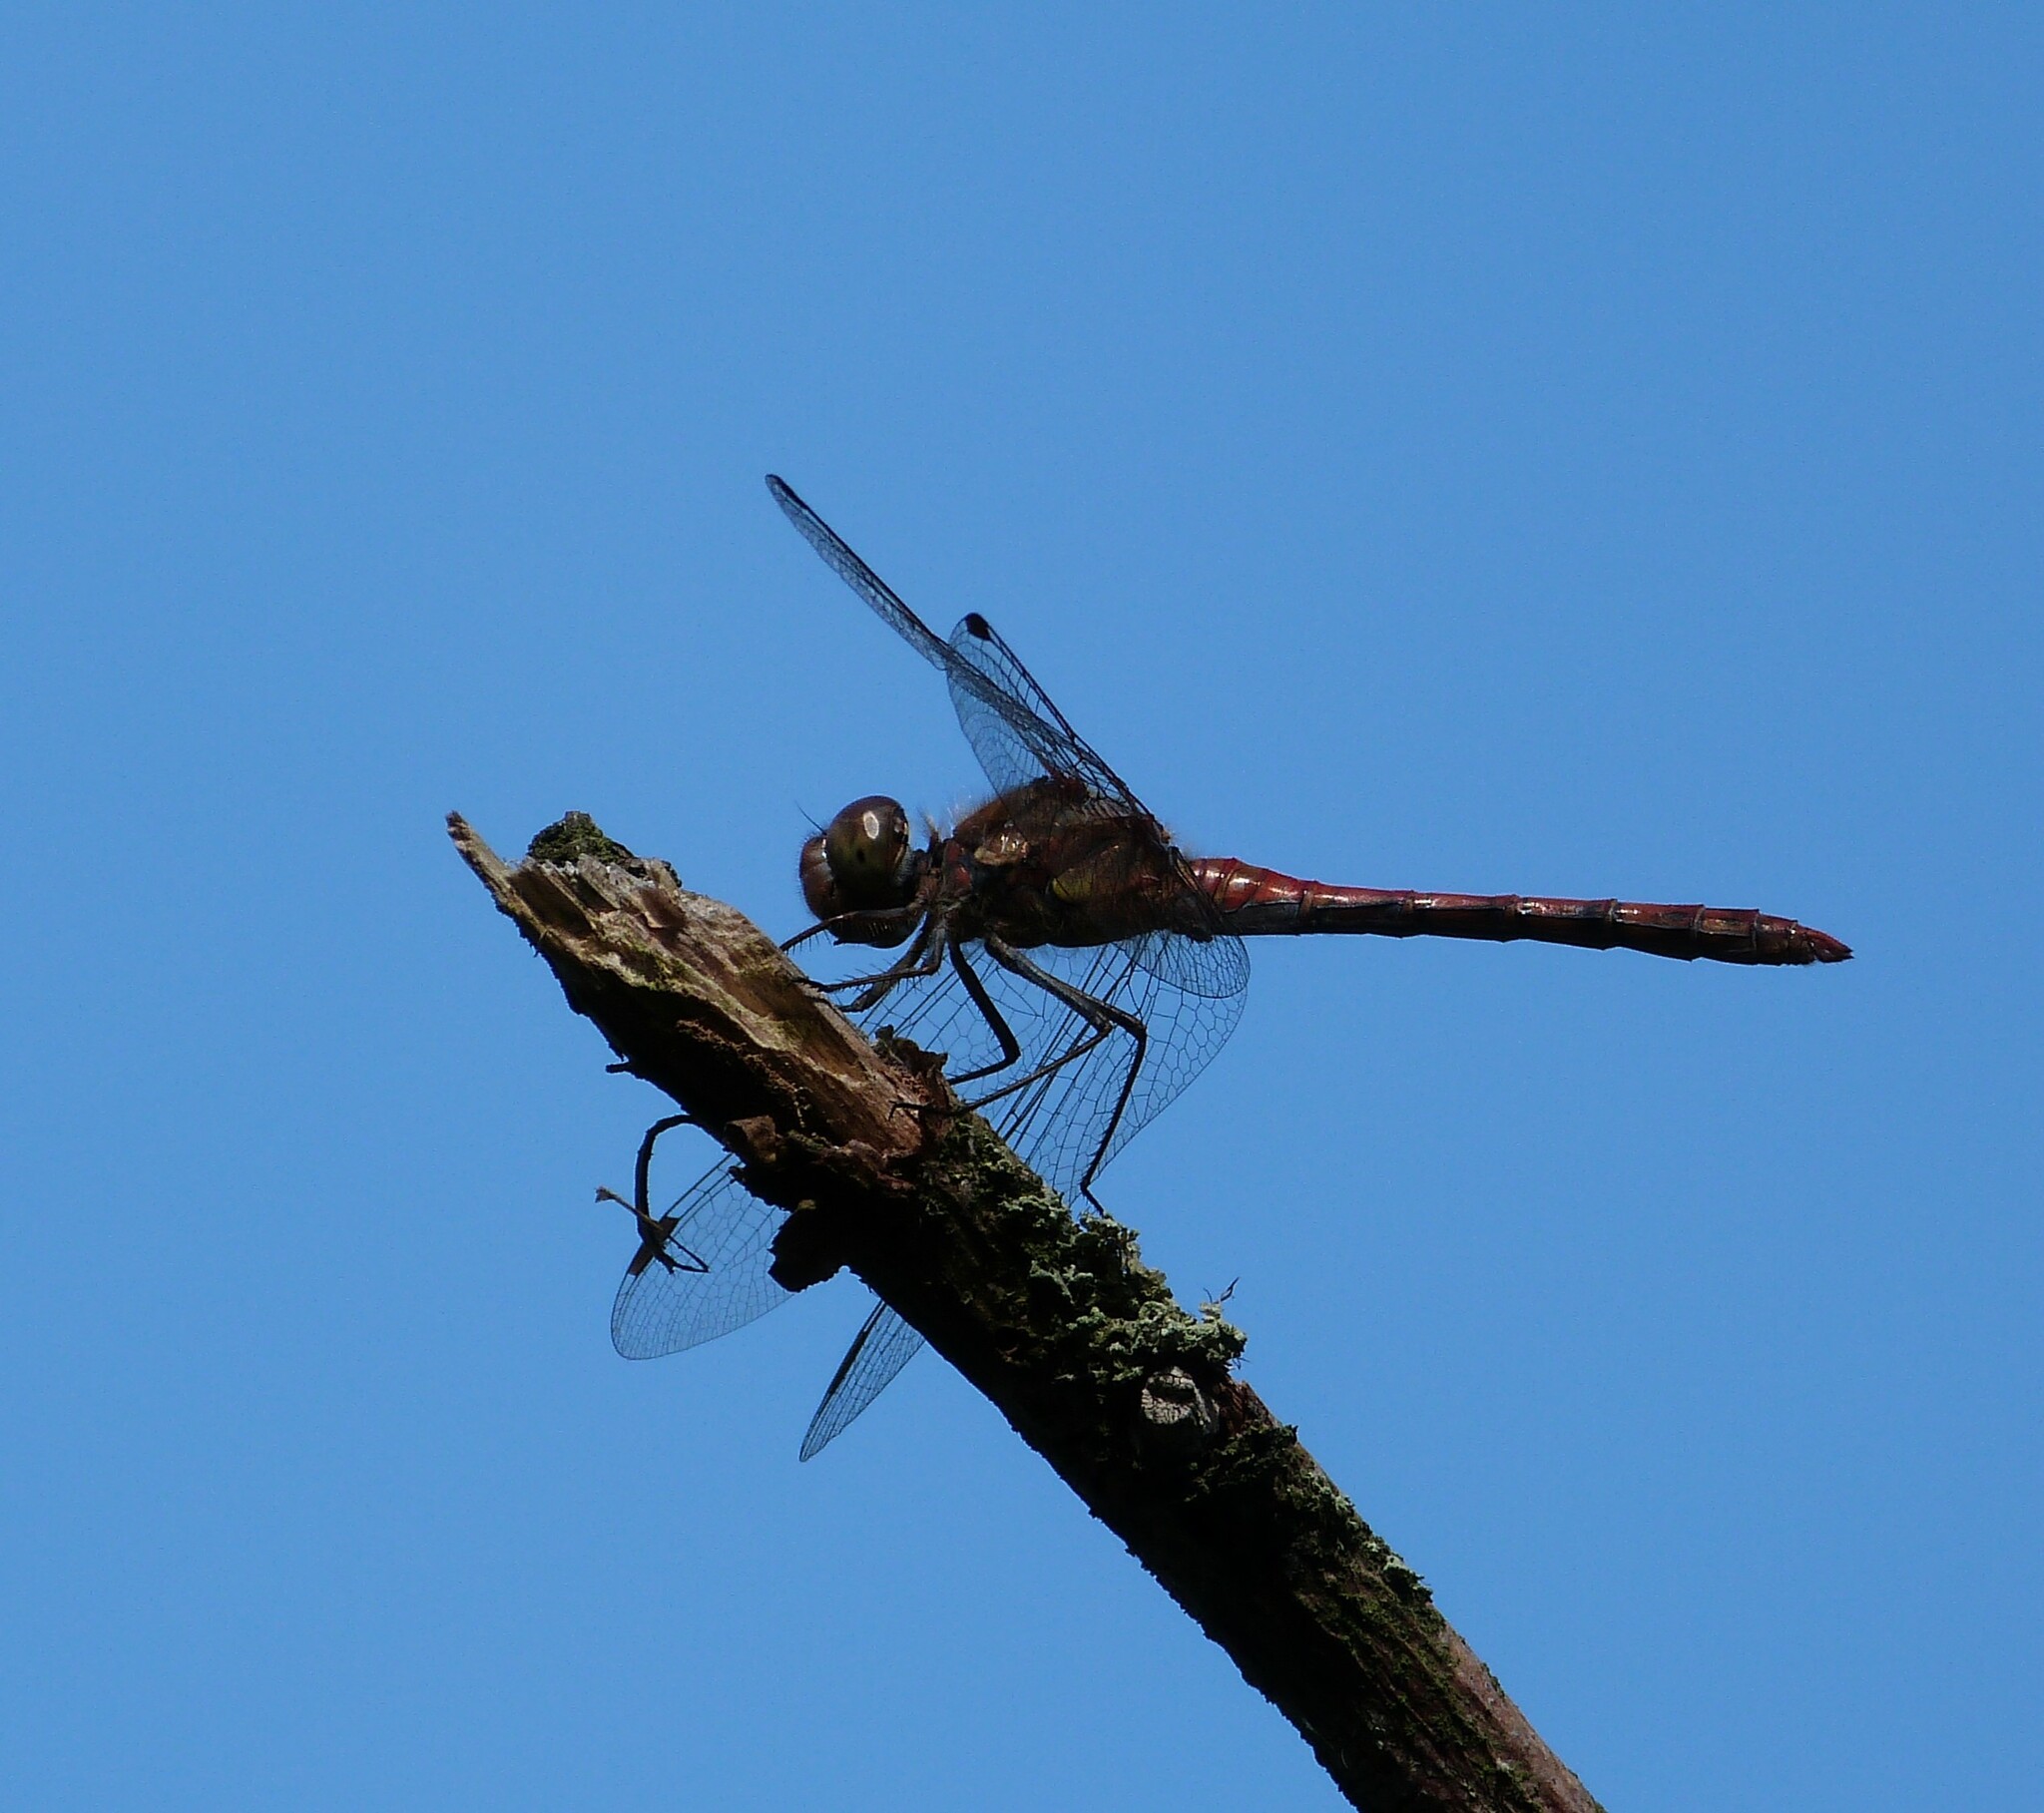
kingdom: Animalia
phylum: Arthropoda
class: Insecta
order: Odonata
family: Libellulidae
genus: Sympetrum
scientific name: Sympetrum striolatum
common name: Common darter
